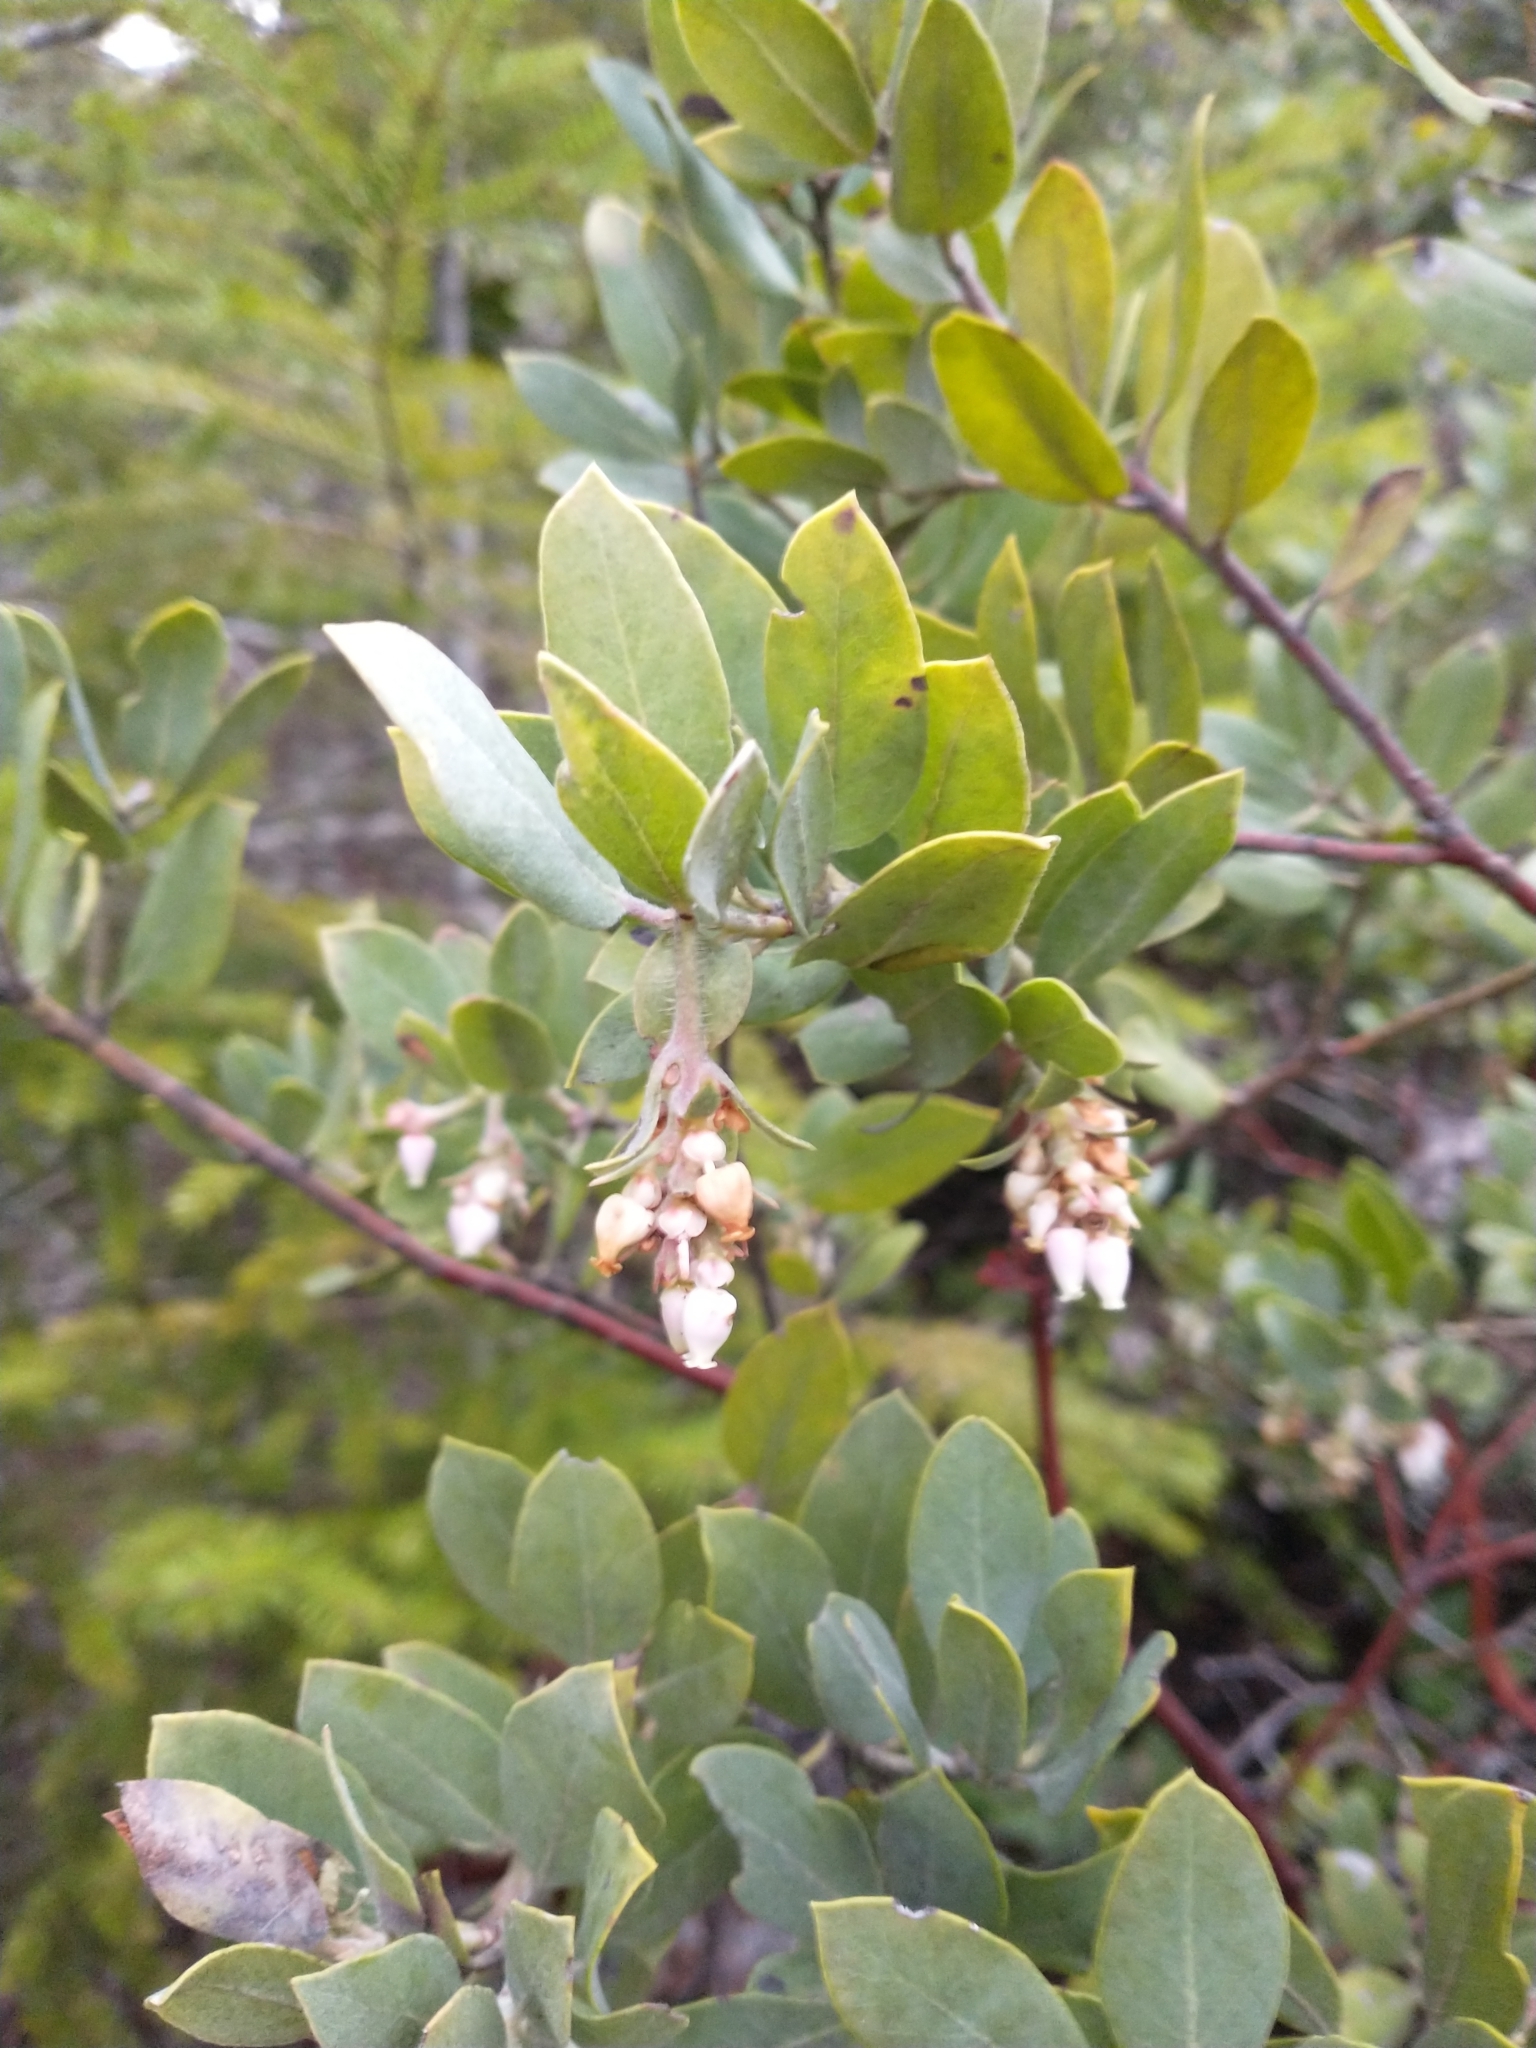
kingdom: Plantae
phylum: Tracheophyta
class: Magnoliopsida
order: Ericales
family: Ericaceae
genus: Arctostaphylos
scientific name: Arctostaphylos columbiana
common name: Bristly bearberry
